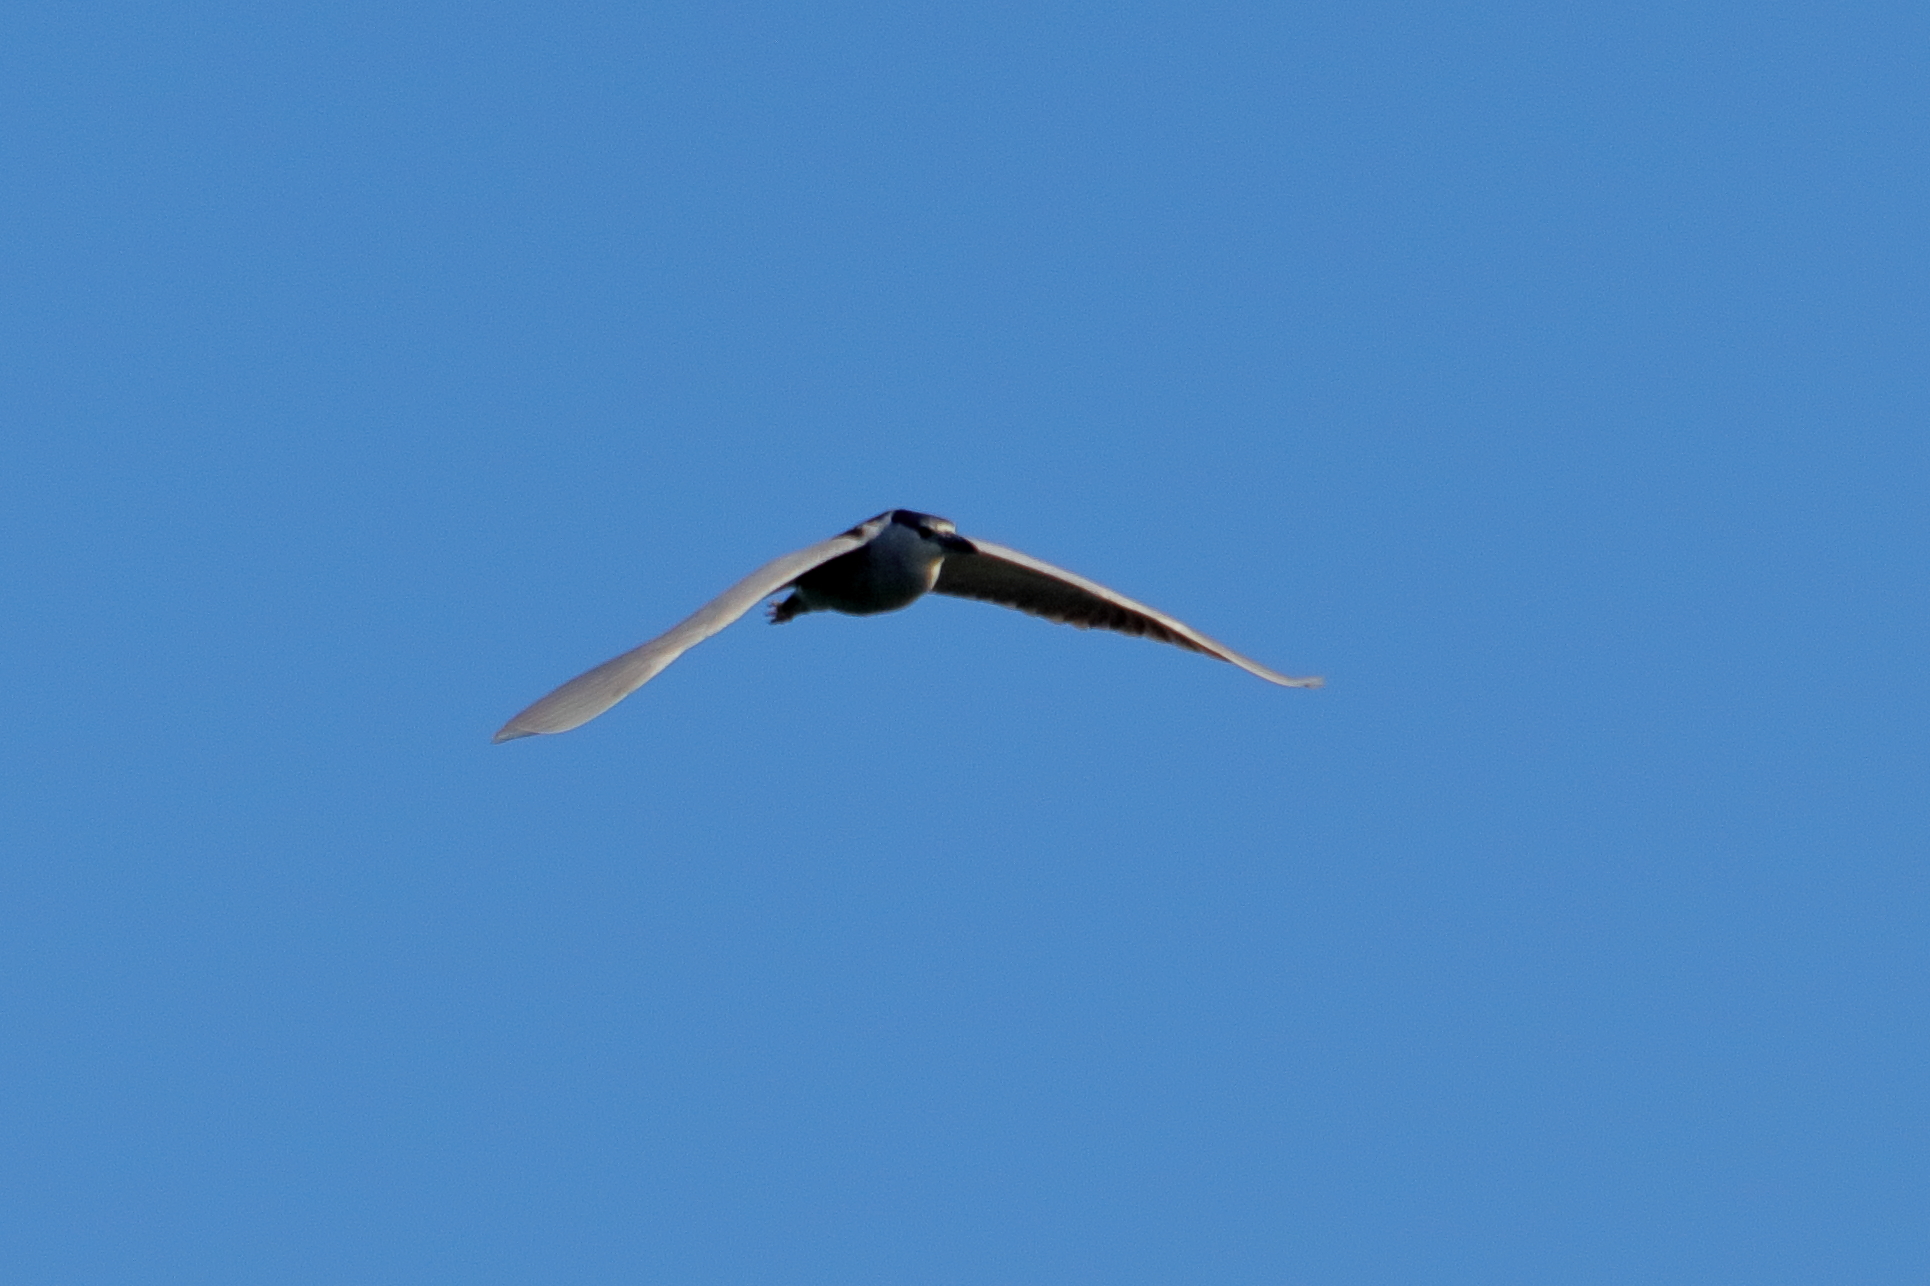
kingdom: Animalia
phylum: Chordata
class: Aves
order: Pelecaniformes
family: Ardeidae
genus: Nycticorax
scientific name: Nycticorax nycticorax
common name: Black-crowned night heron
